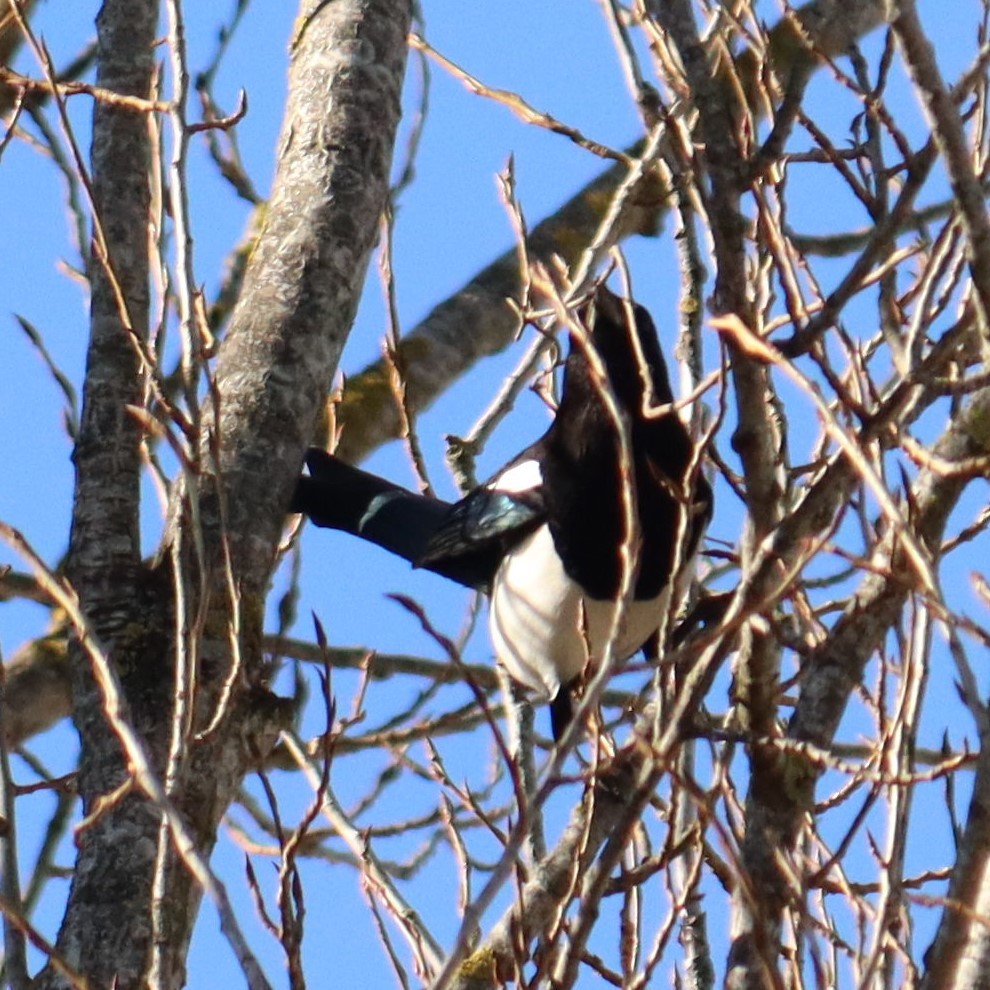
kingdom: Animalia
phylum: Chordata
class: Aves
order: Passeriformes
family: Corvidae
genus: Pica
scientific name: Pica pica
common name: Eurasian magpie
